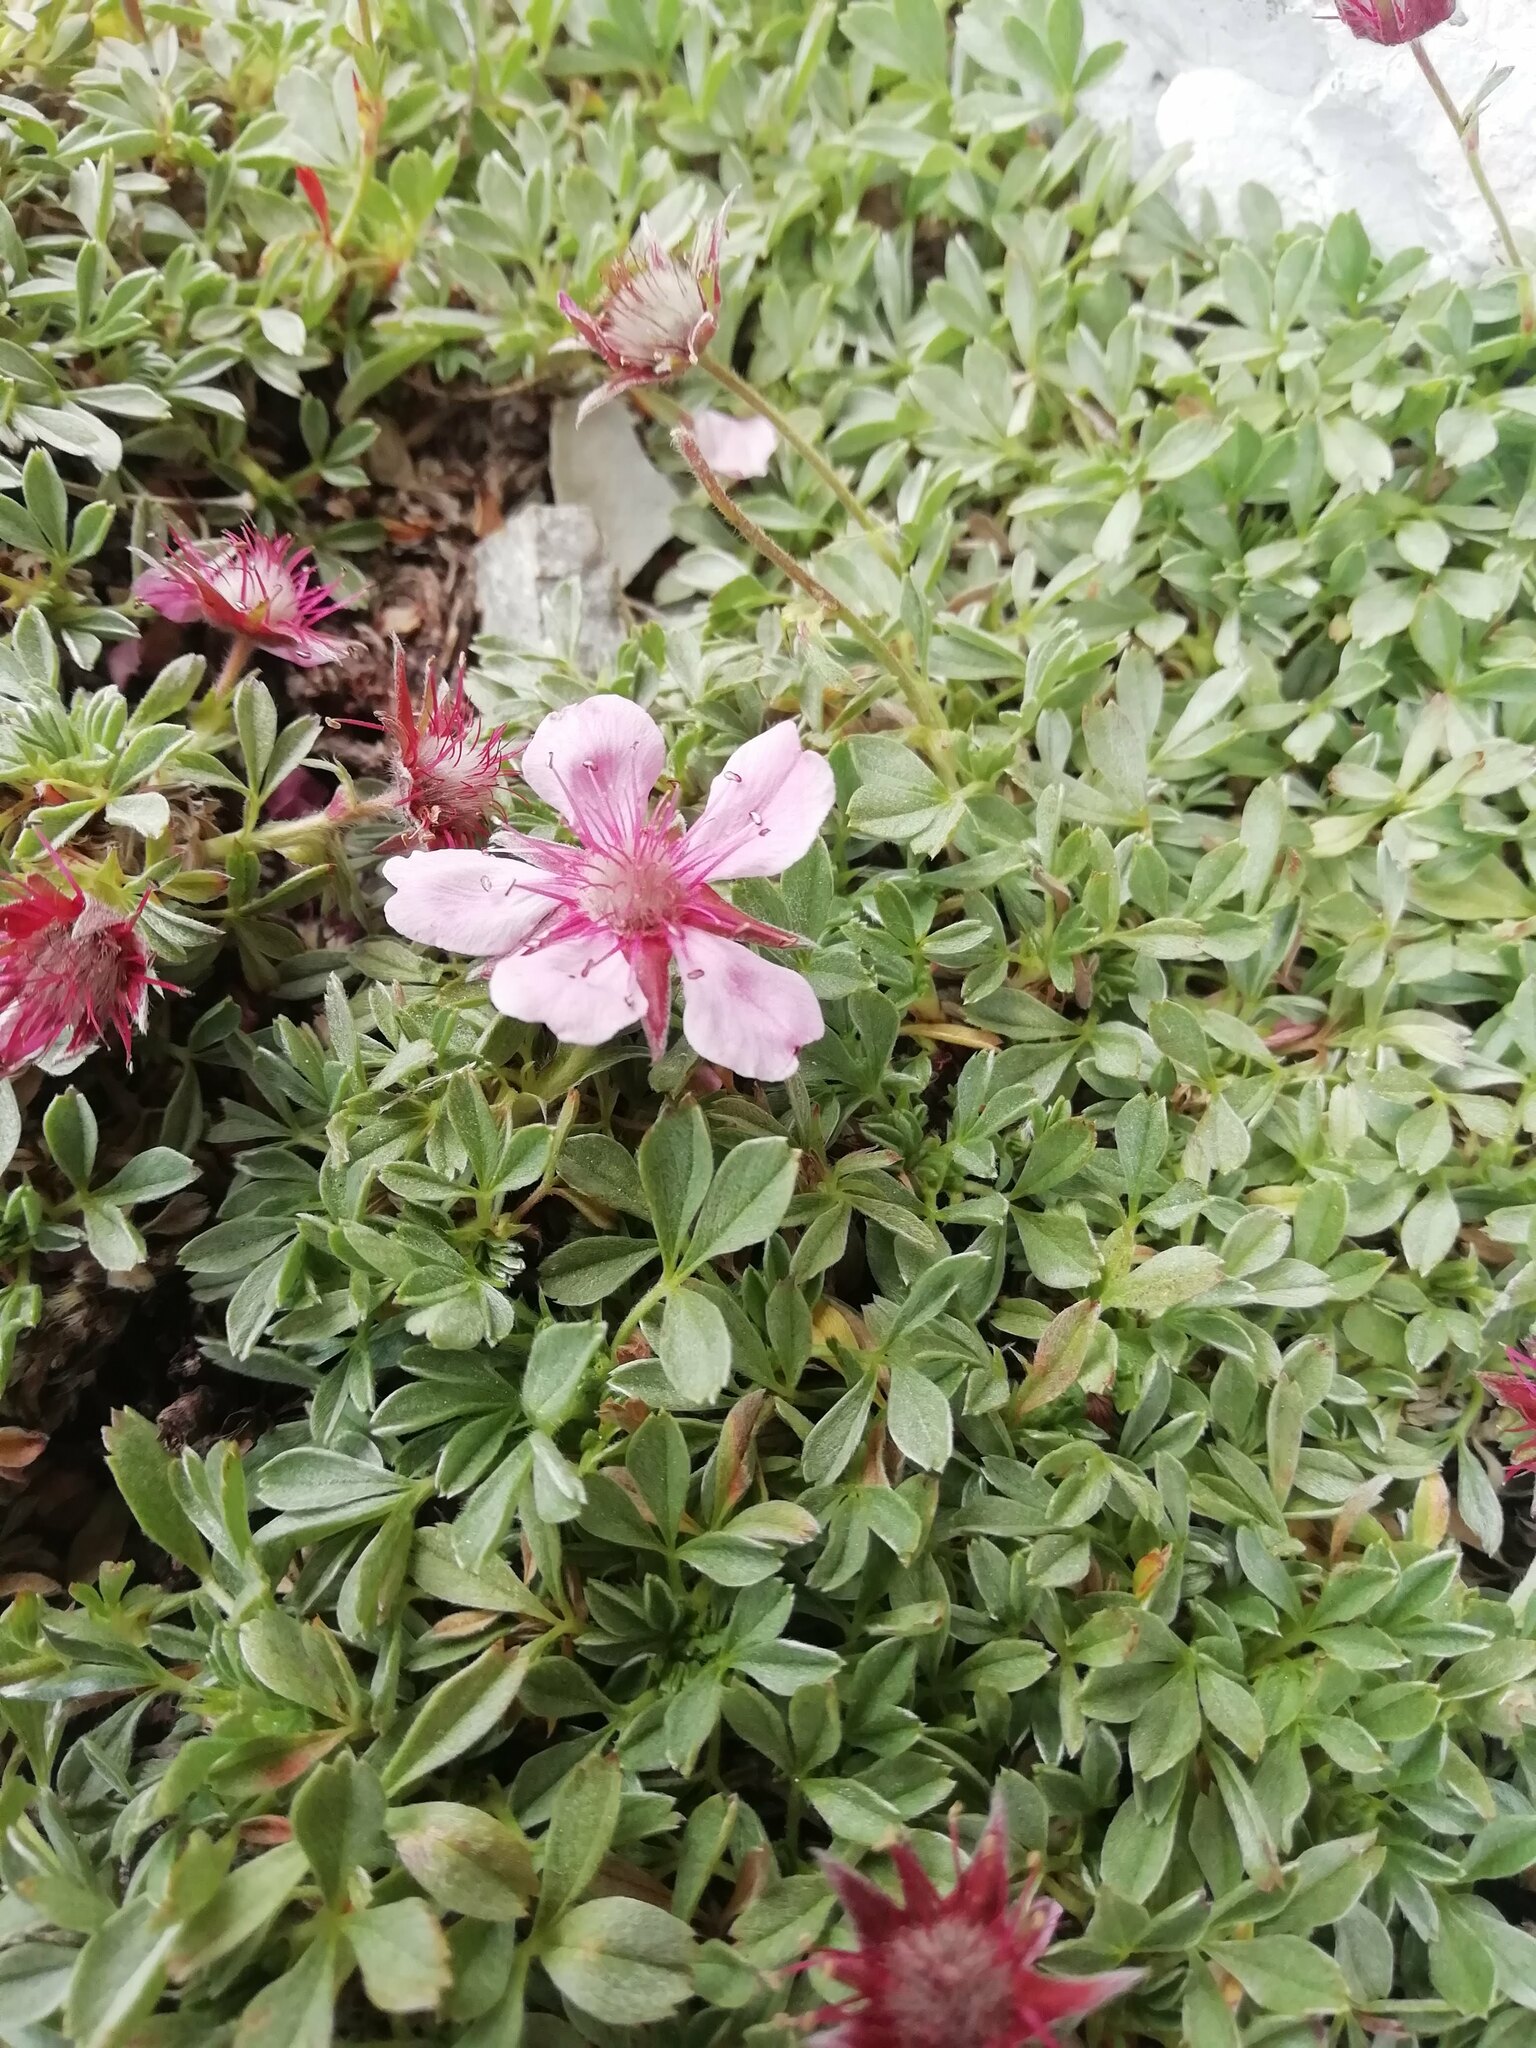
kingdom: Plantae
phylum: Tracheophyta
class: Magnoliopsida
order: Rosales
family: Rosaceae
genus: Potentilla
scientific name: Potentilla nitida
